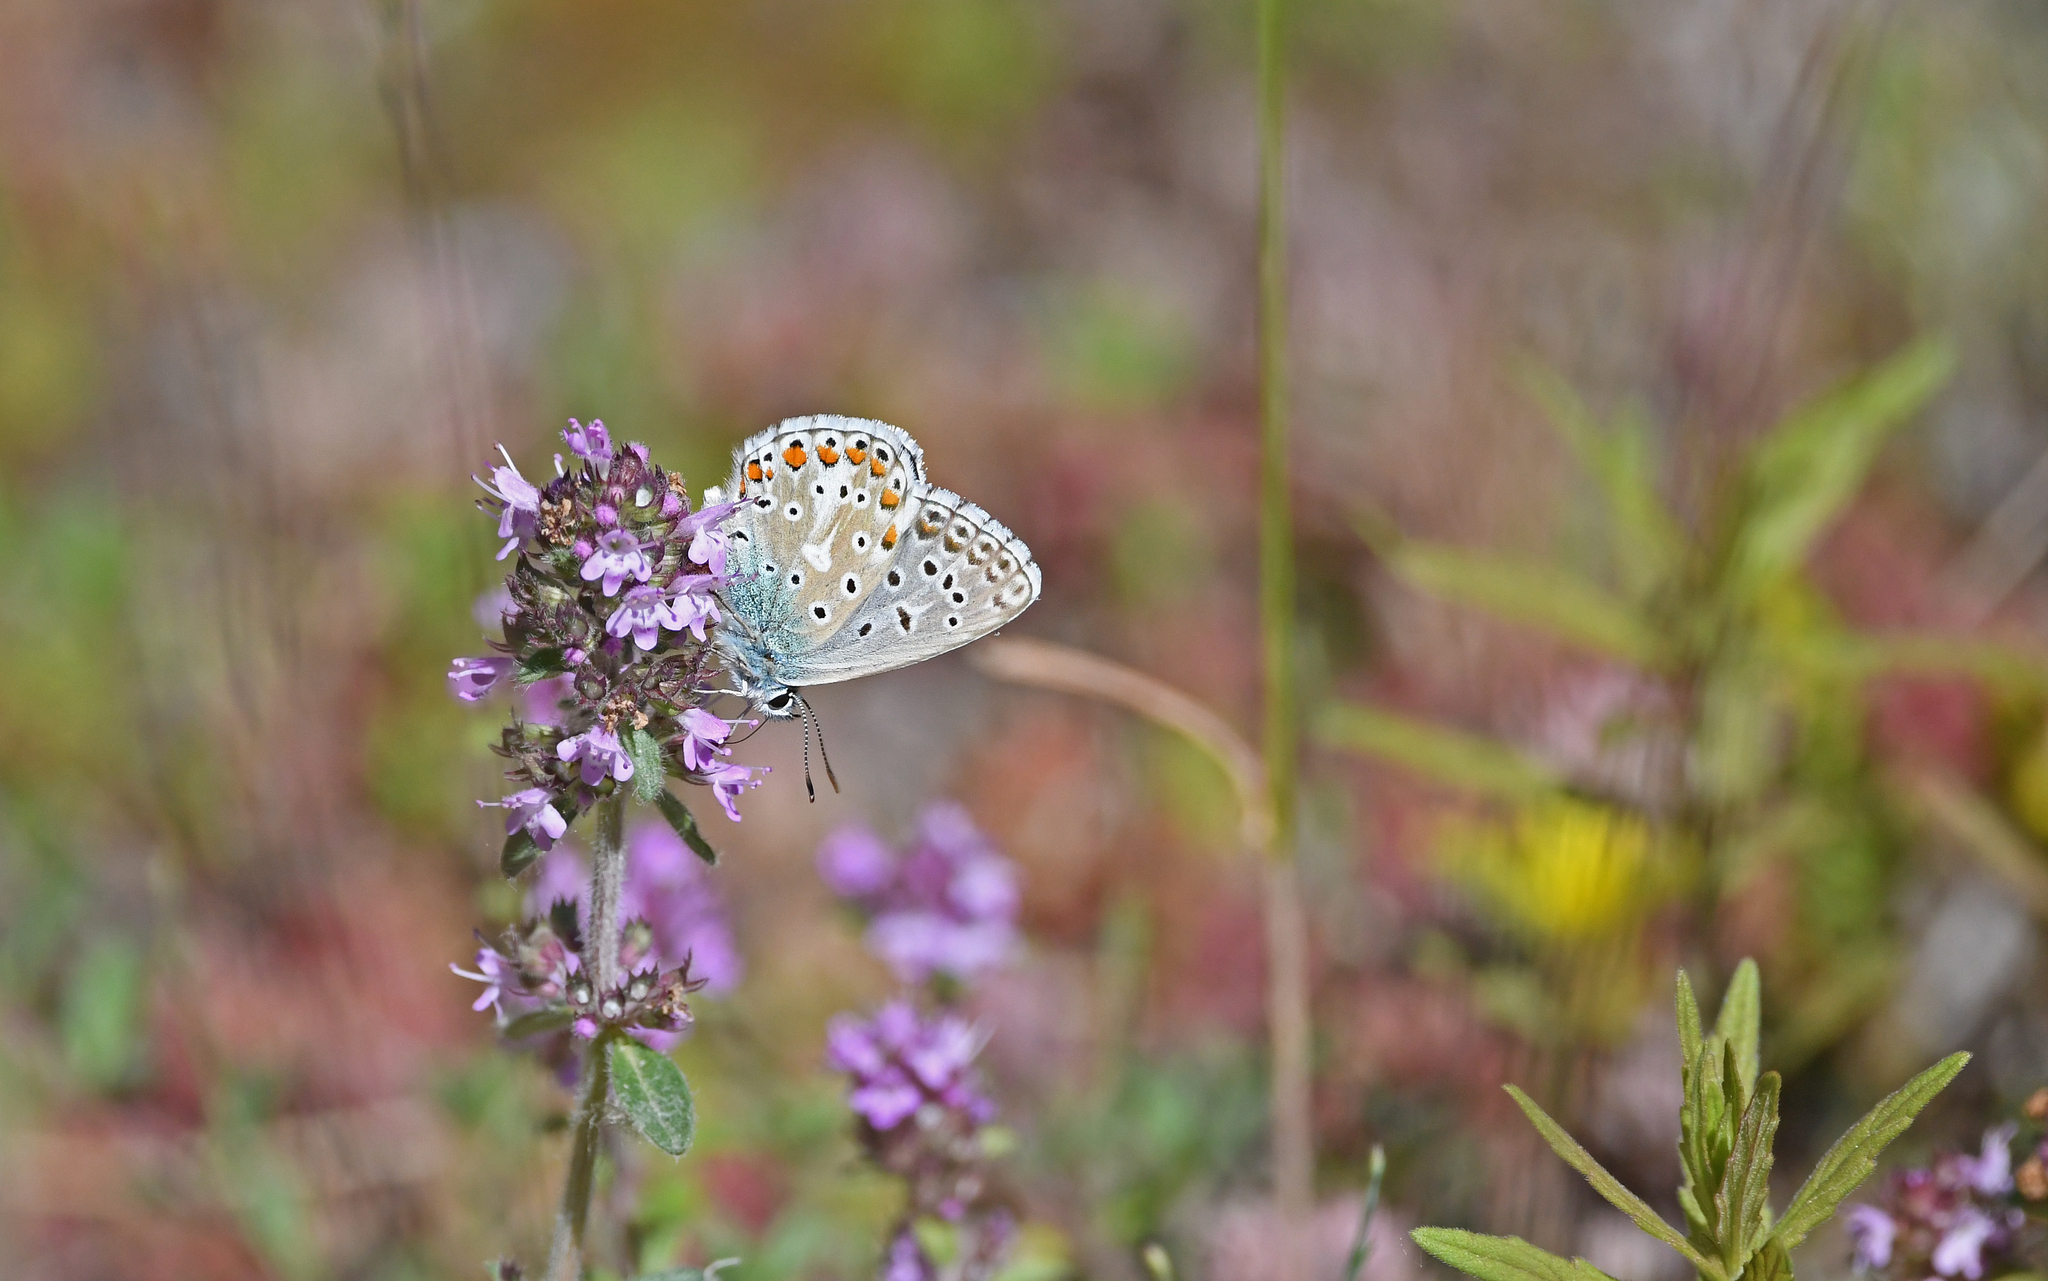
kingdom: Animalia
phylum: Arthropoda
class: Insecta
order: Lepidoptera
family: Lycaenidae
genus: Lysandra
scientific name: Lysandra bellargus
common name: Adonis blue
